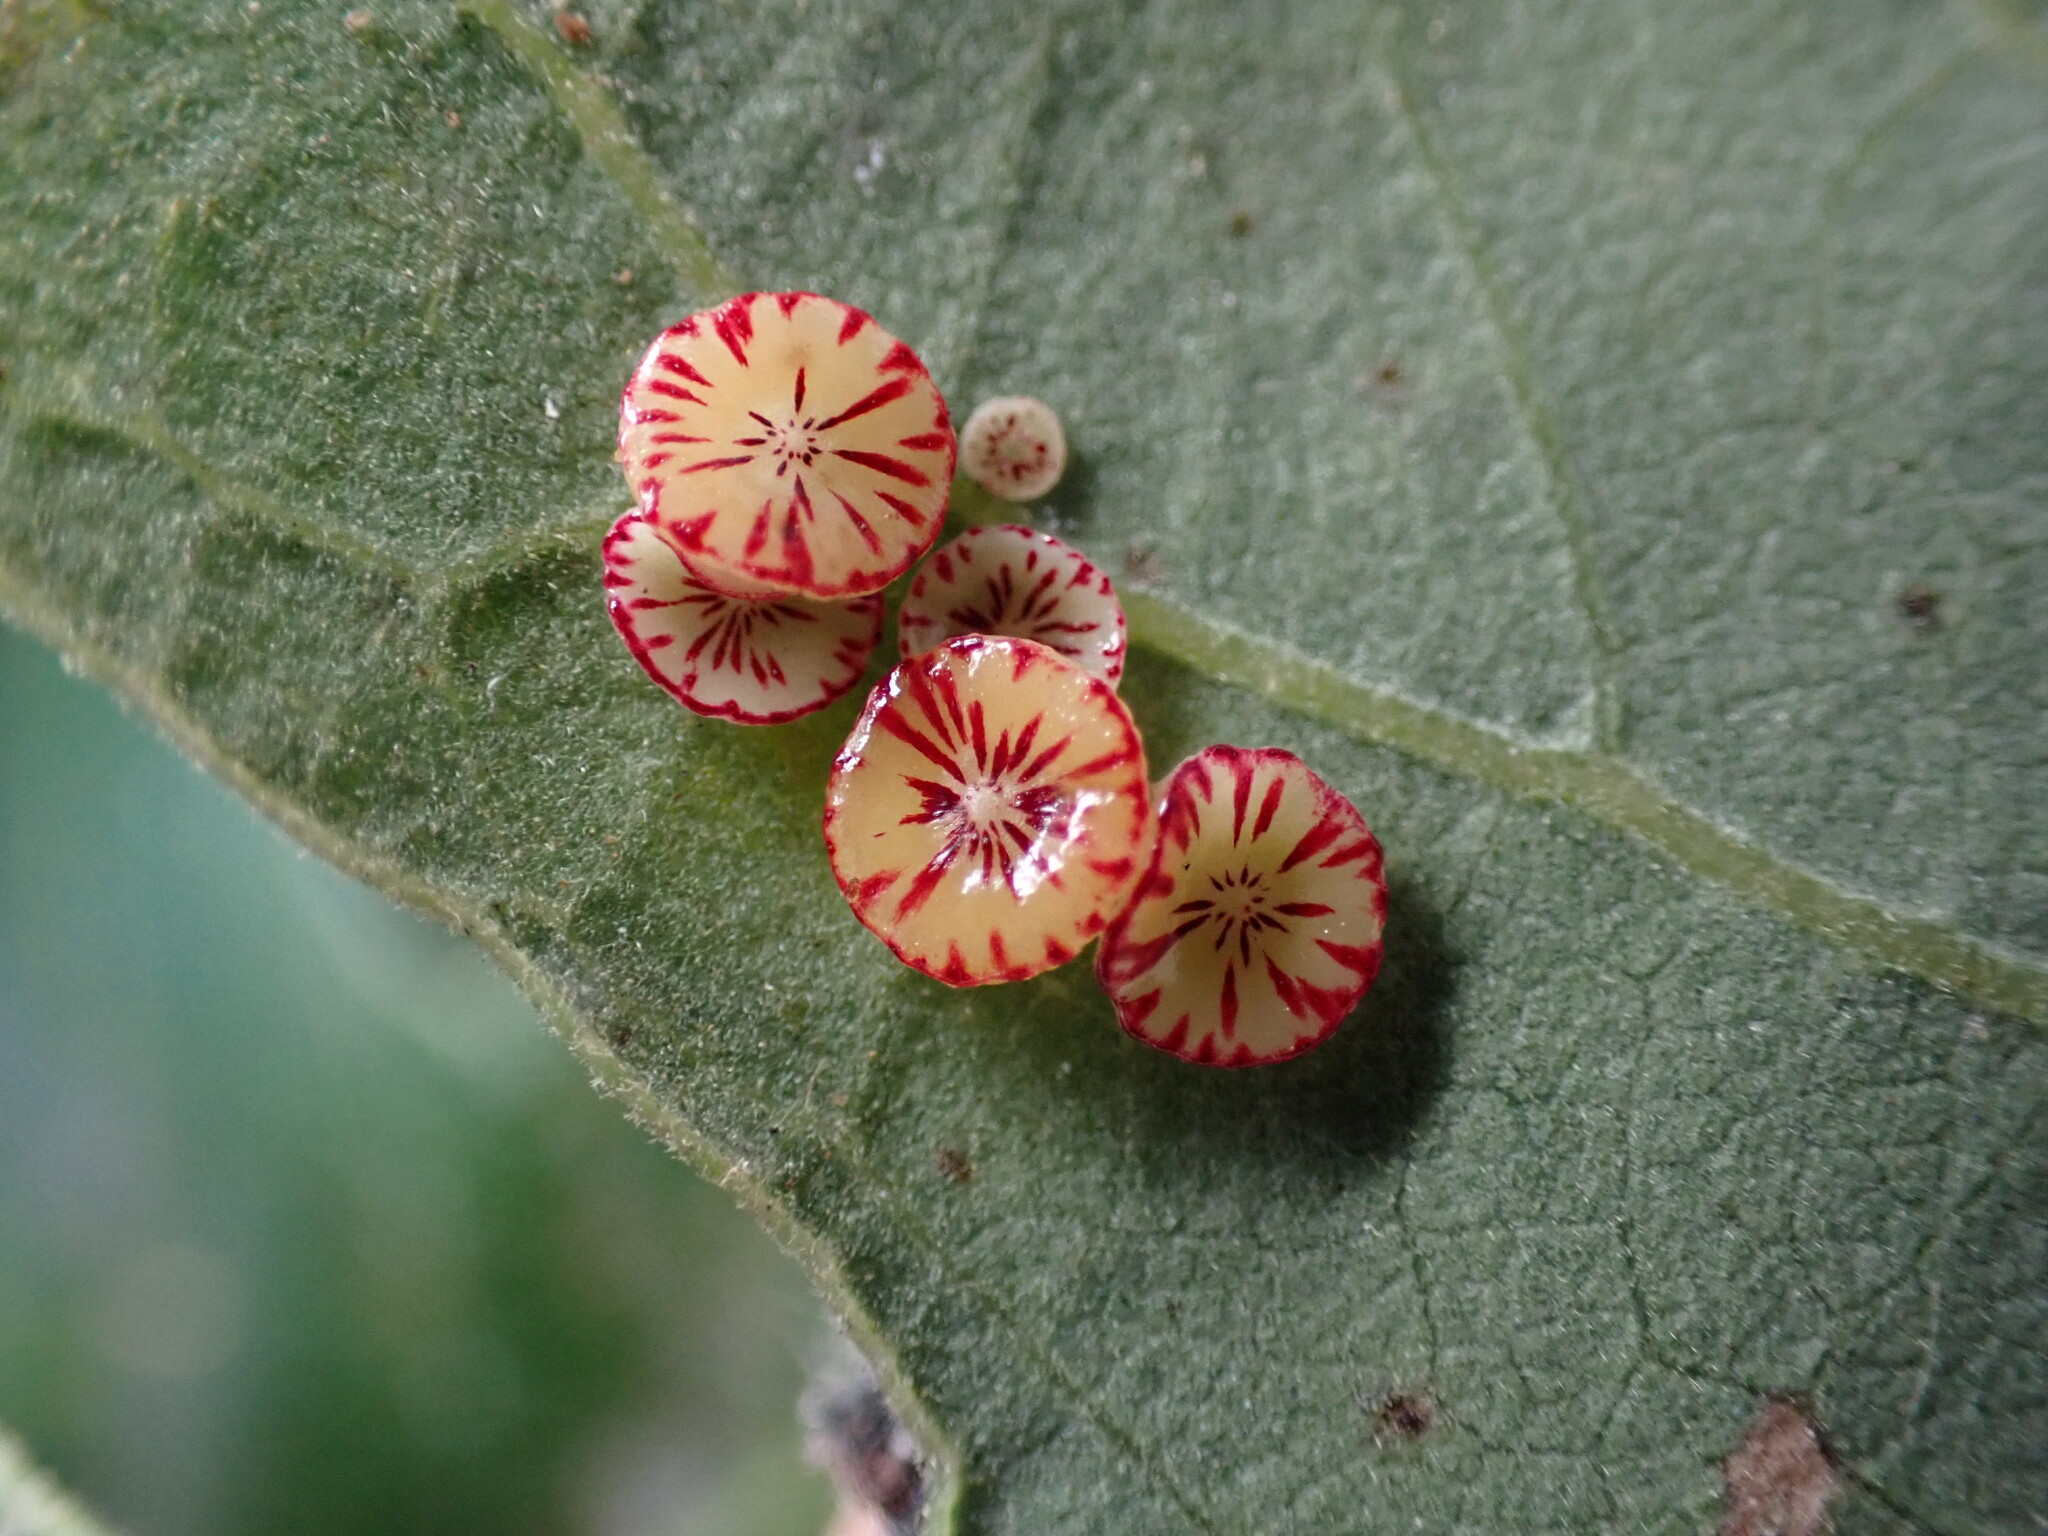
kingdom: Animalia
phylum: Arthropoda
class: Insecta
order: Hymenoptera
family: Cynipidae
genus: Andricus
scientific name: Andricus
